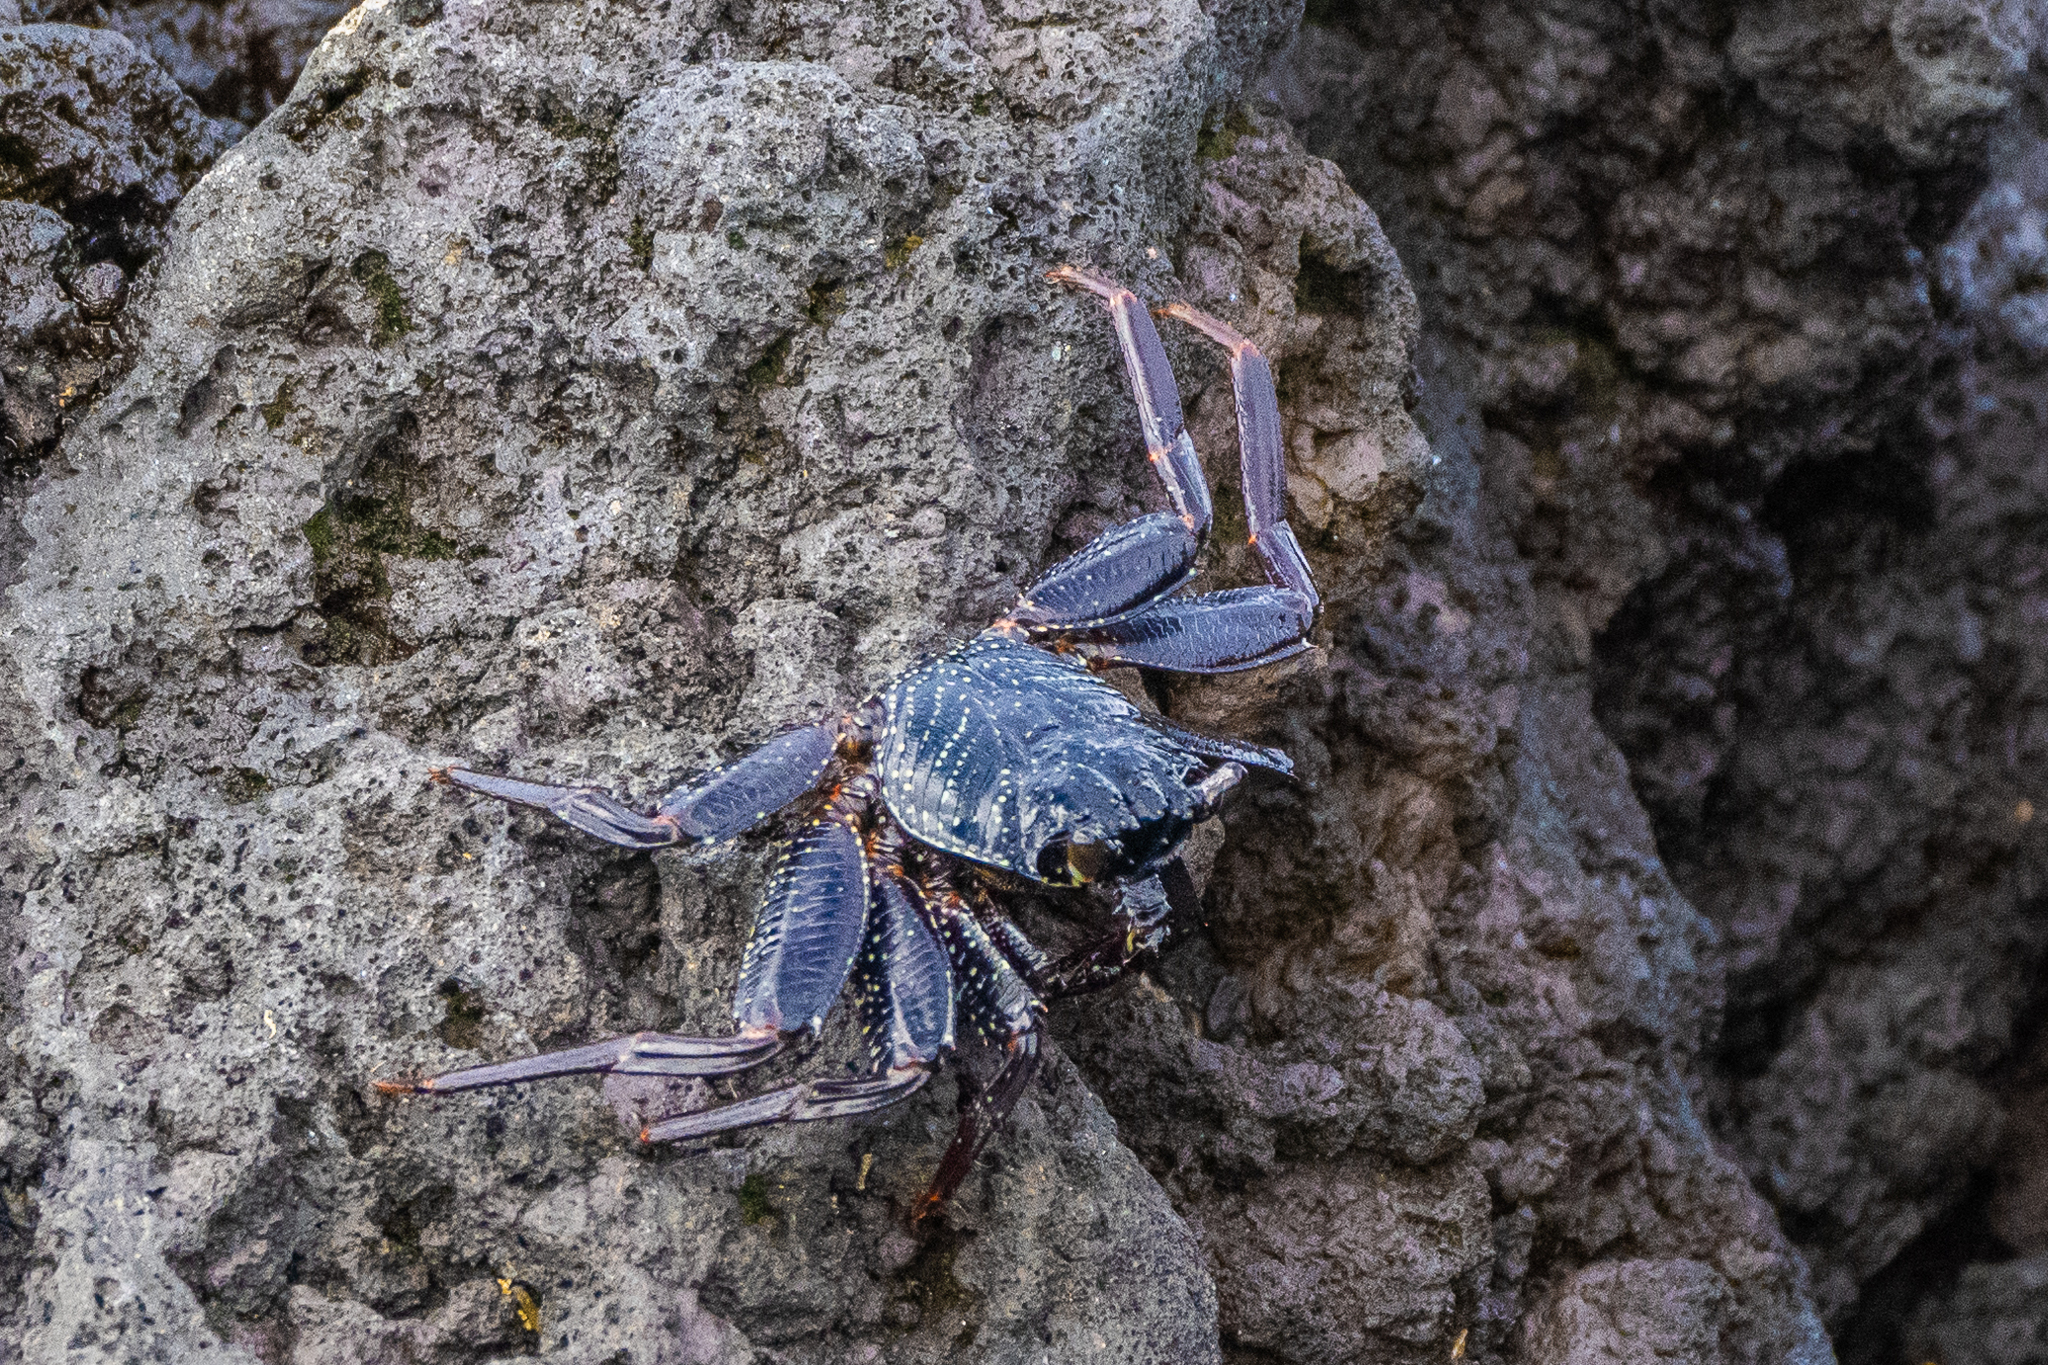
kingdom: Animalia
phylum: Arthropoda
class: Malacostraca
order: Decapoda
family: Grapsidae
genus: Grapsus
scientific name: Grapsus tenuicrustatus
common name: Natal lightfoot crab
